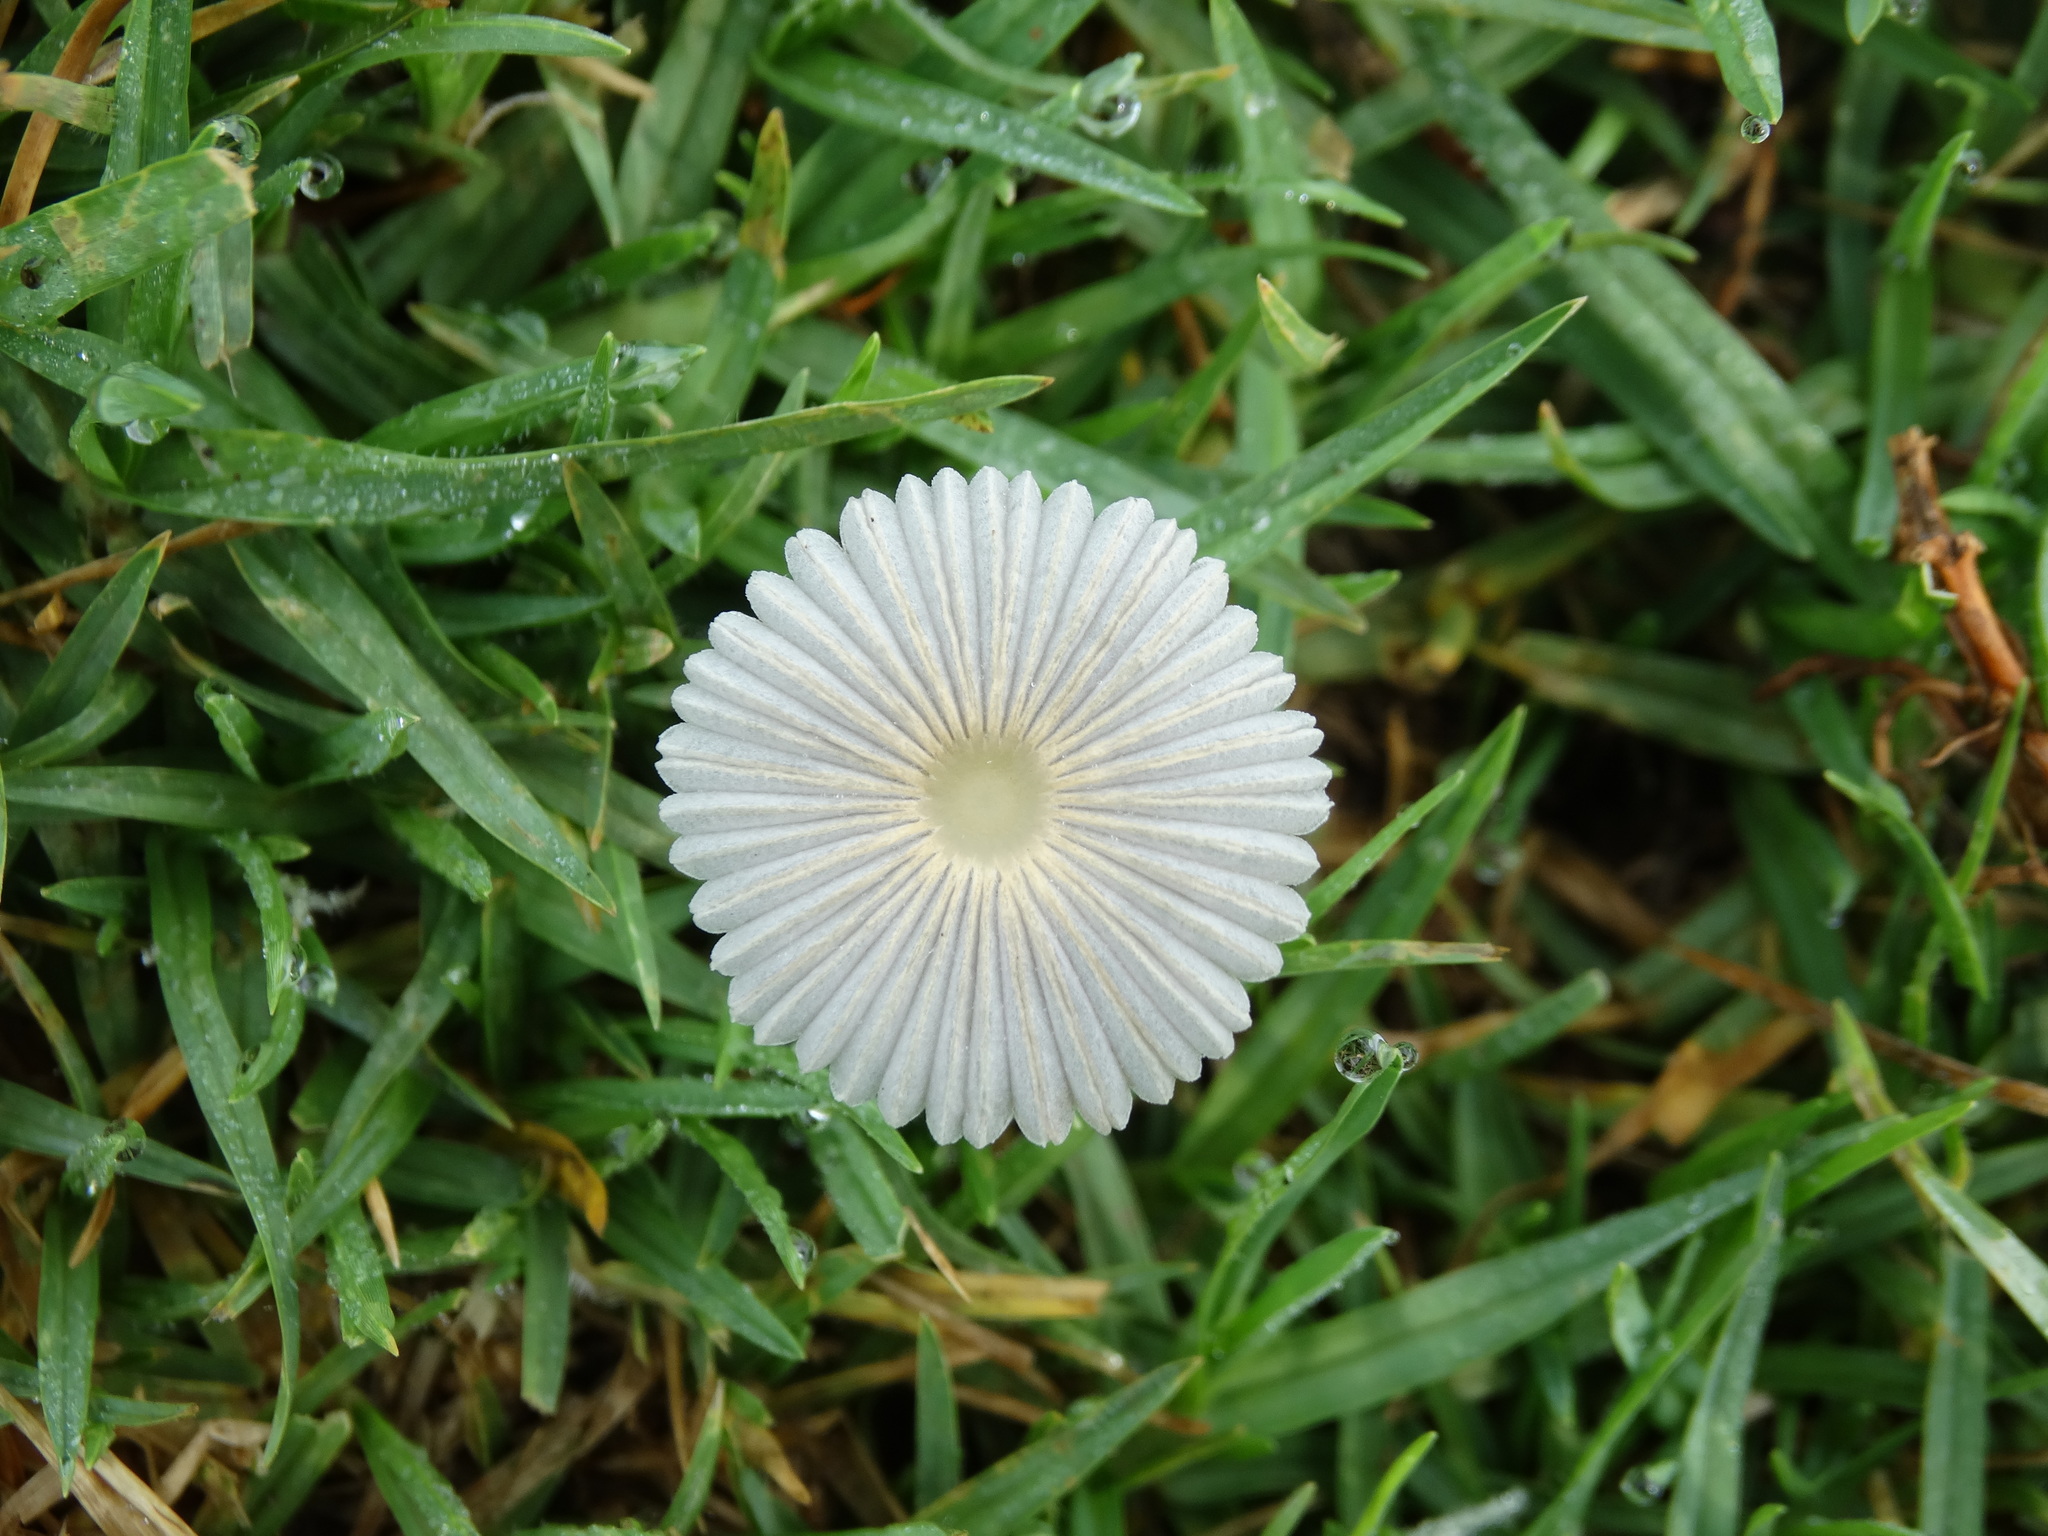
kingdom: Fungi
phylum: Basidiomycota
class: Agaricomycetes
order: Agaricales
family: Psathyrellaceae
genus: Parasola
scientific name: Parasola lactea
